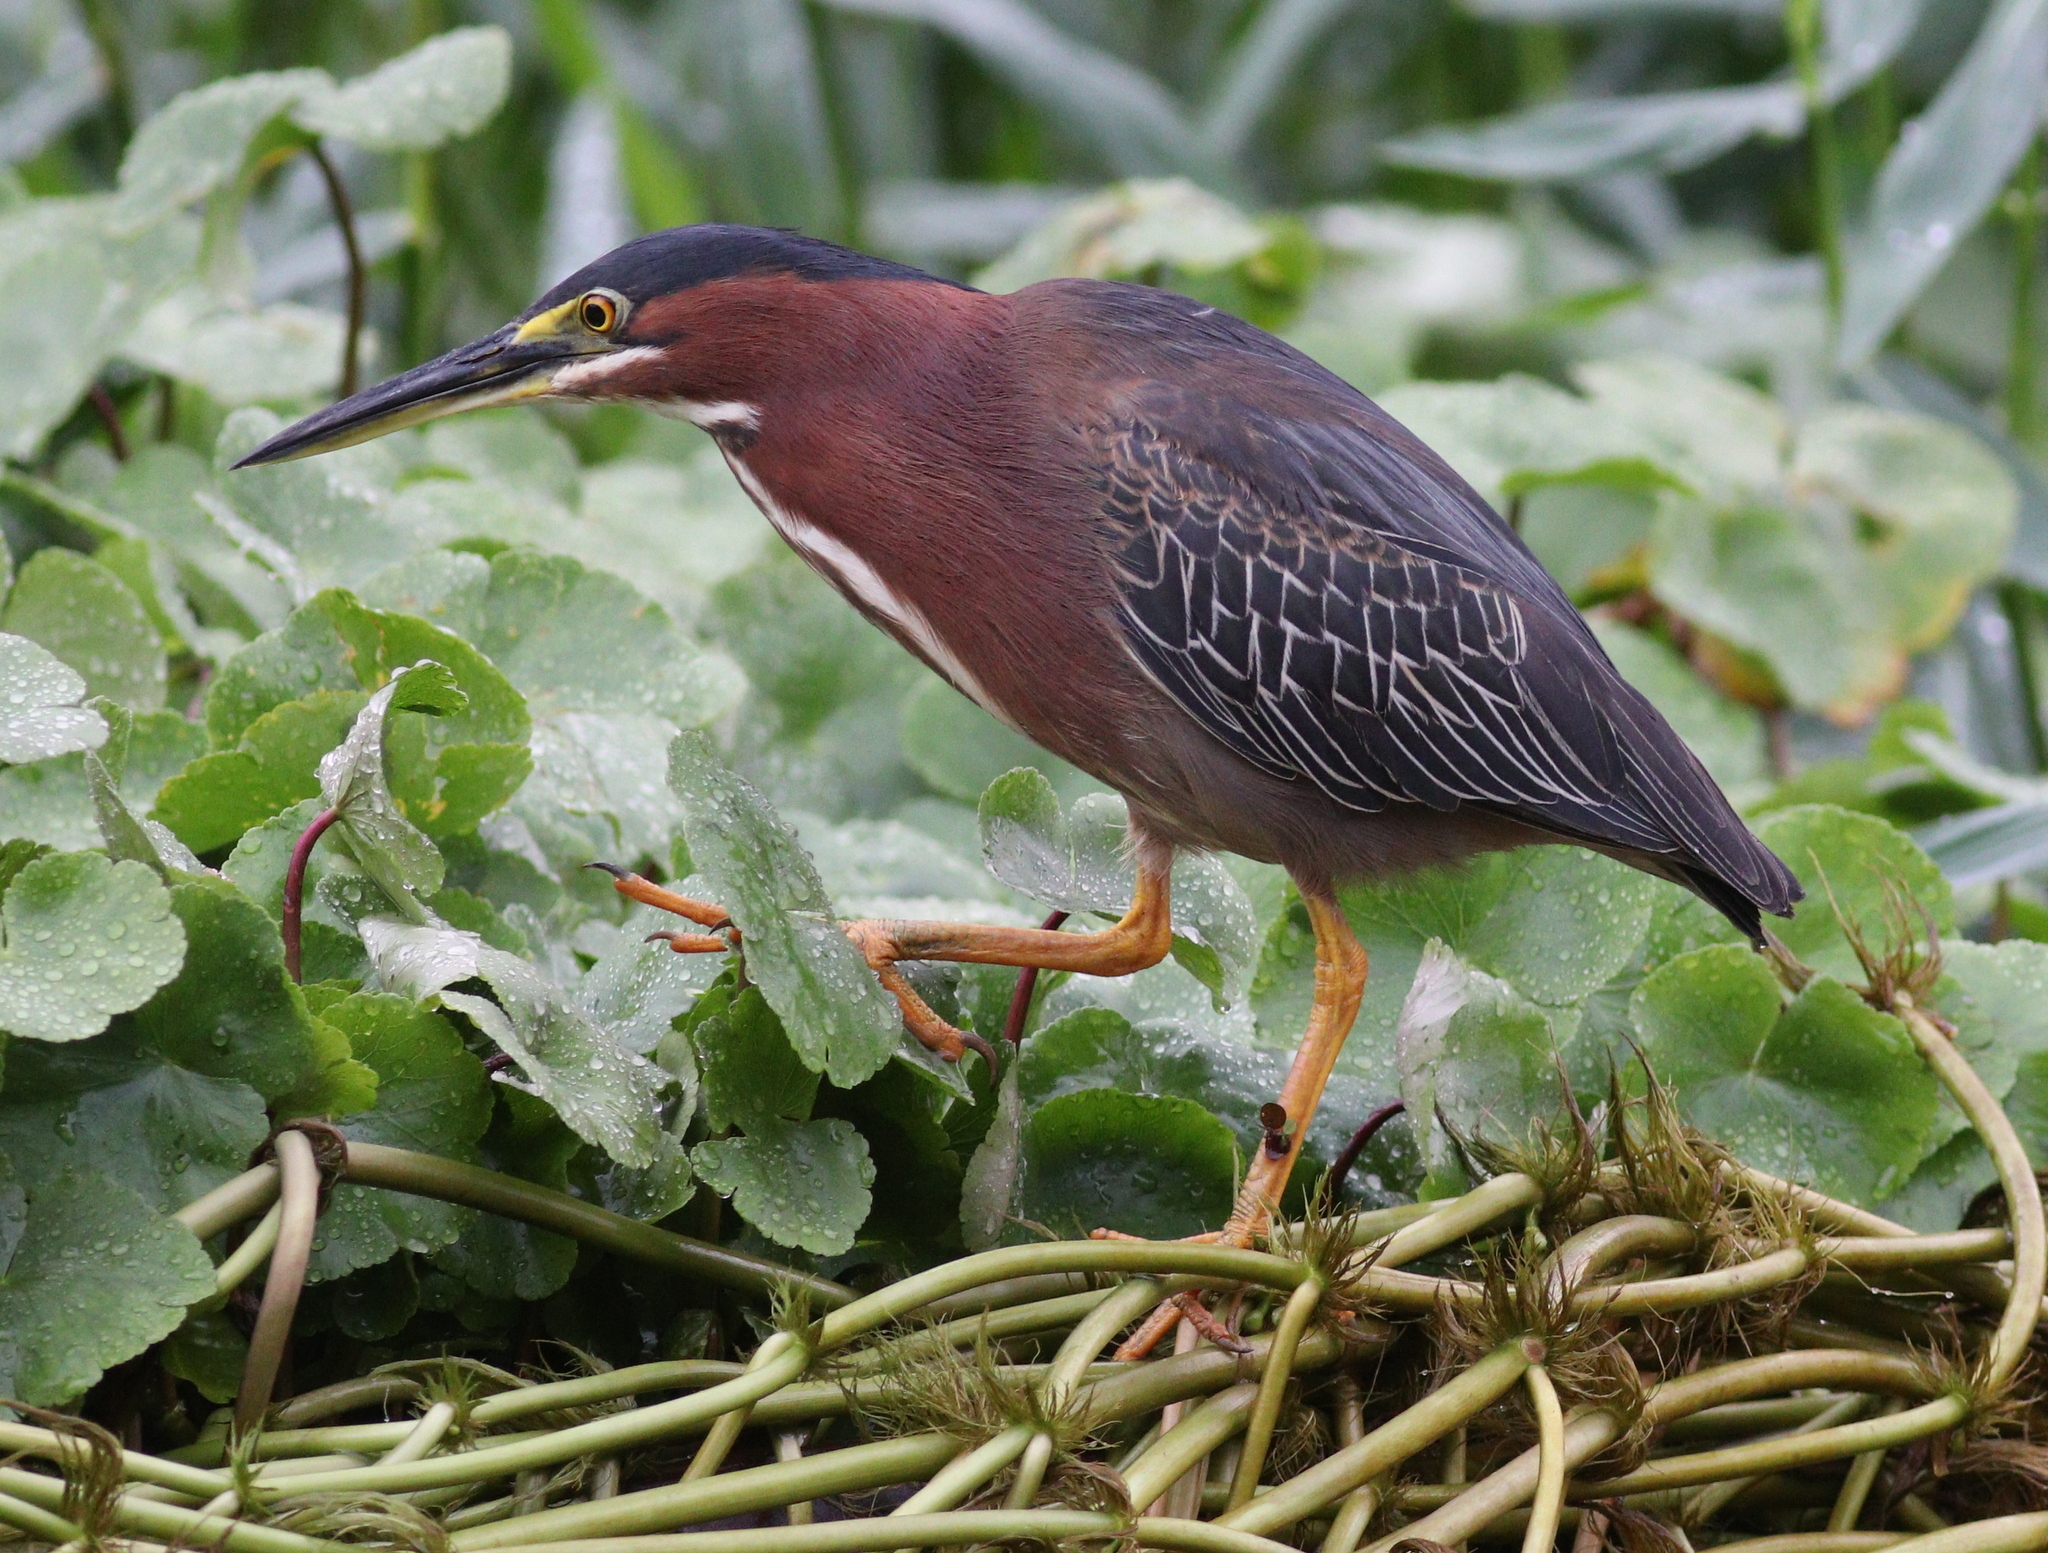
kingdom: Animalia
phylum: Chordata
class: Aves
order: Pelecaniformes
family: Ardeidae
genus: Butorides
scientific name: Butorides virescens
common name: Green heron
